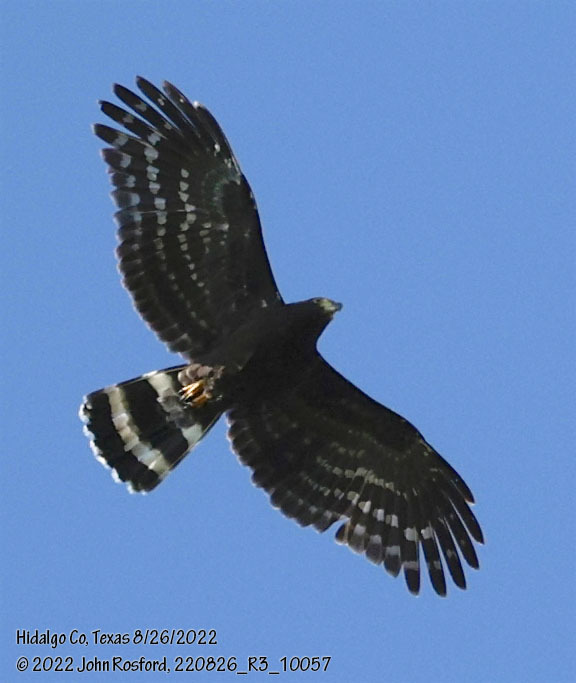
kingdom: Animalia
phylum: Chordata
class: Aves
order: Accipitriformes
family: Accipitridae
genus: Chondrohierax
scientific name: Chondrohierax uncinatus
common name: Hook-billed kite
